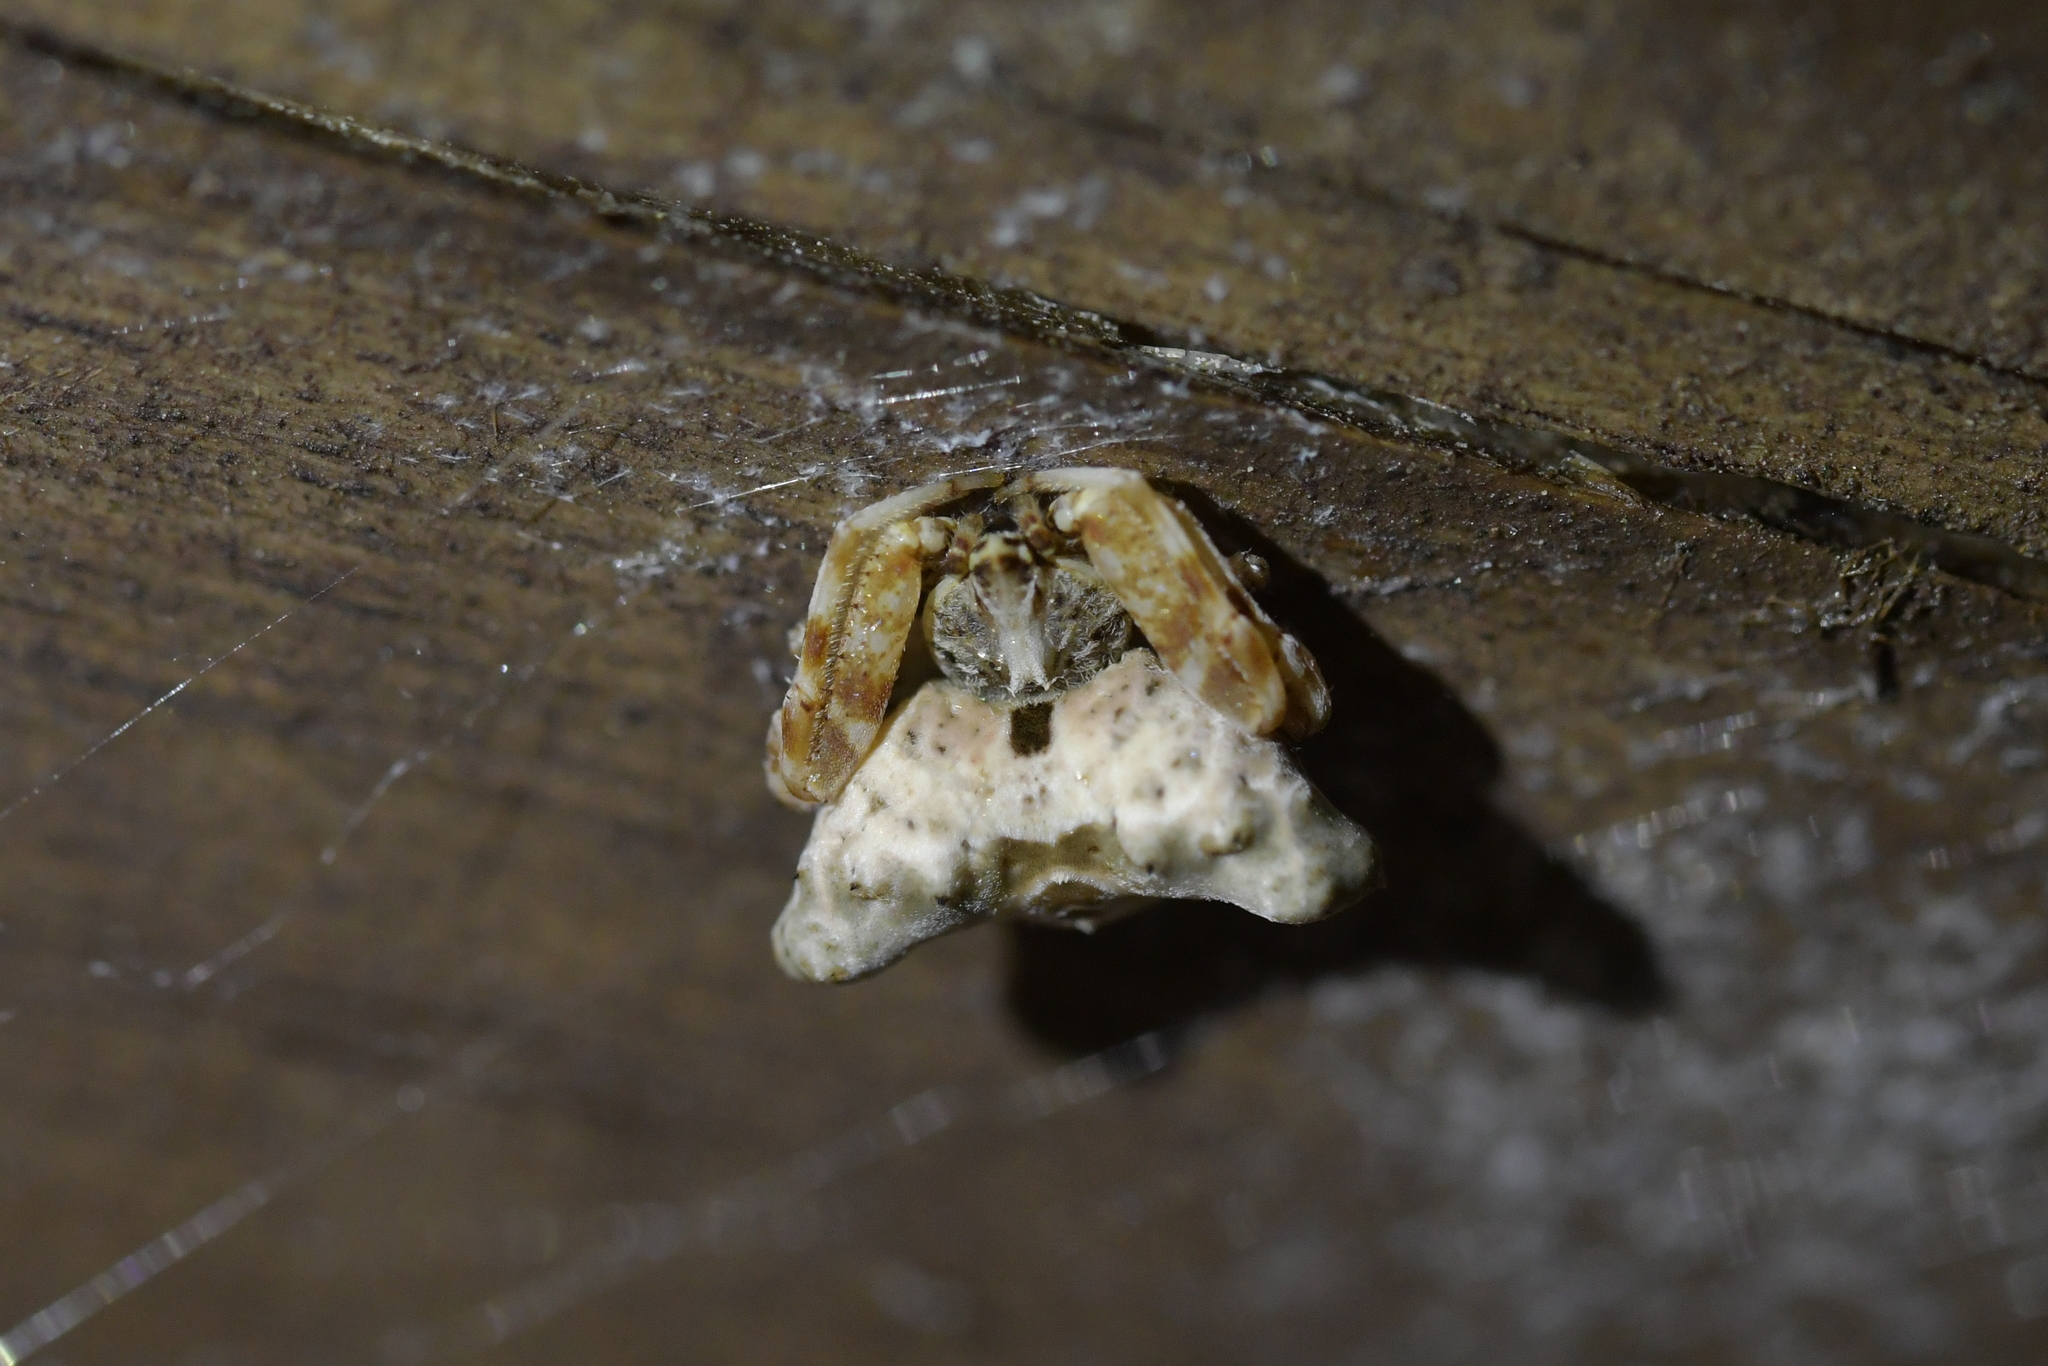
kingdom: Animalia
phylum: Arthropoda
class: Arachnida
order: Araneae
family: Araneidae
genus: Celaenia
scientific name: Celaenia olivacea
